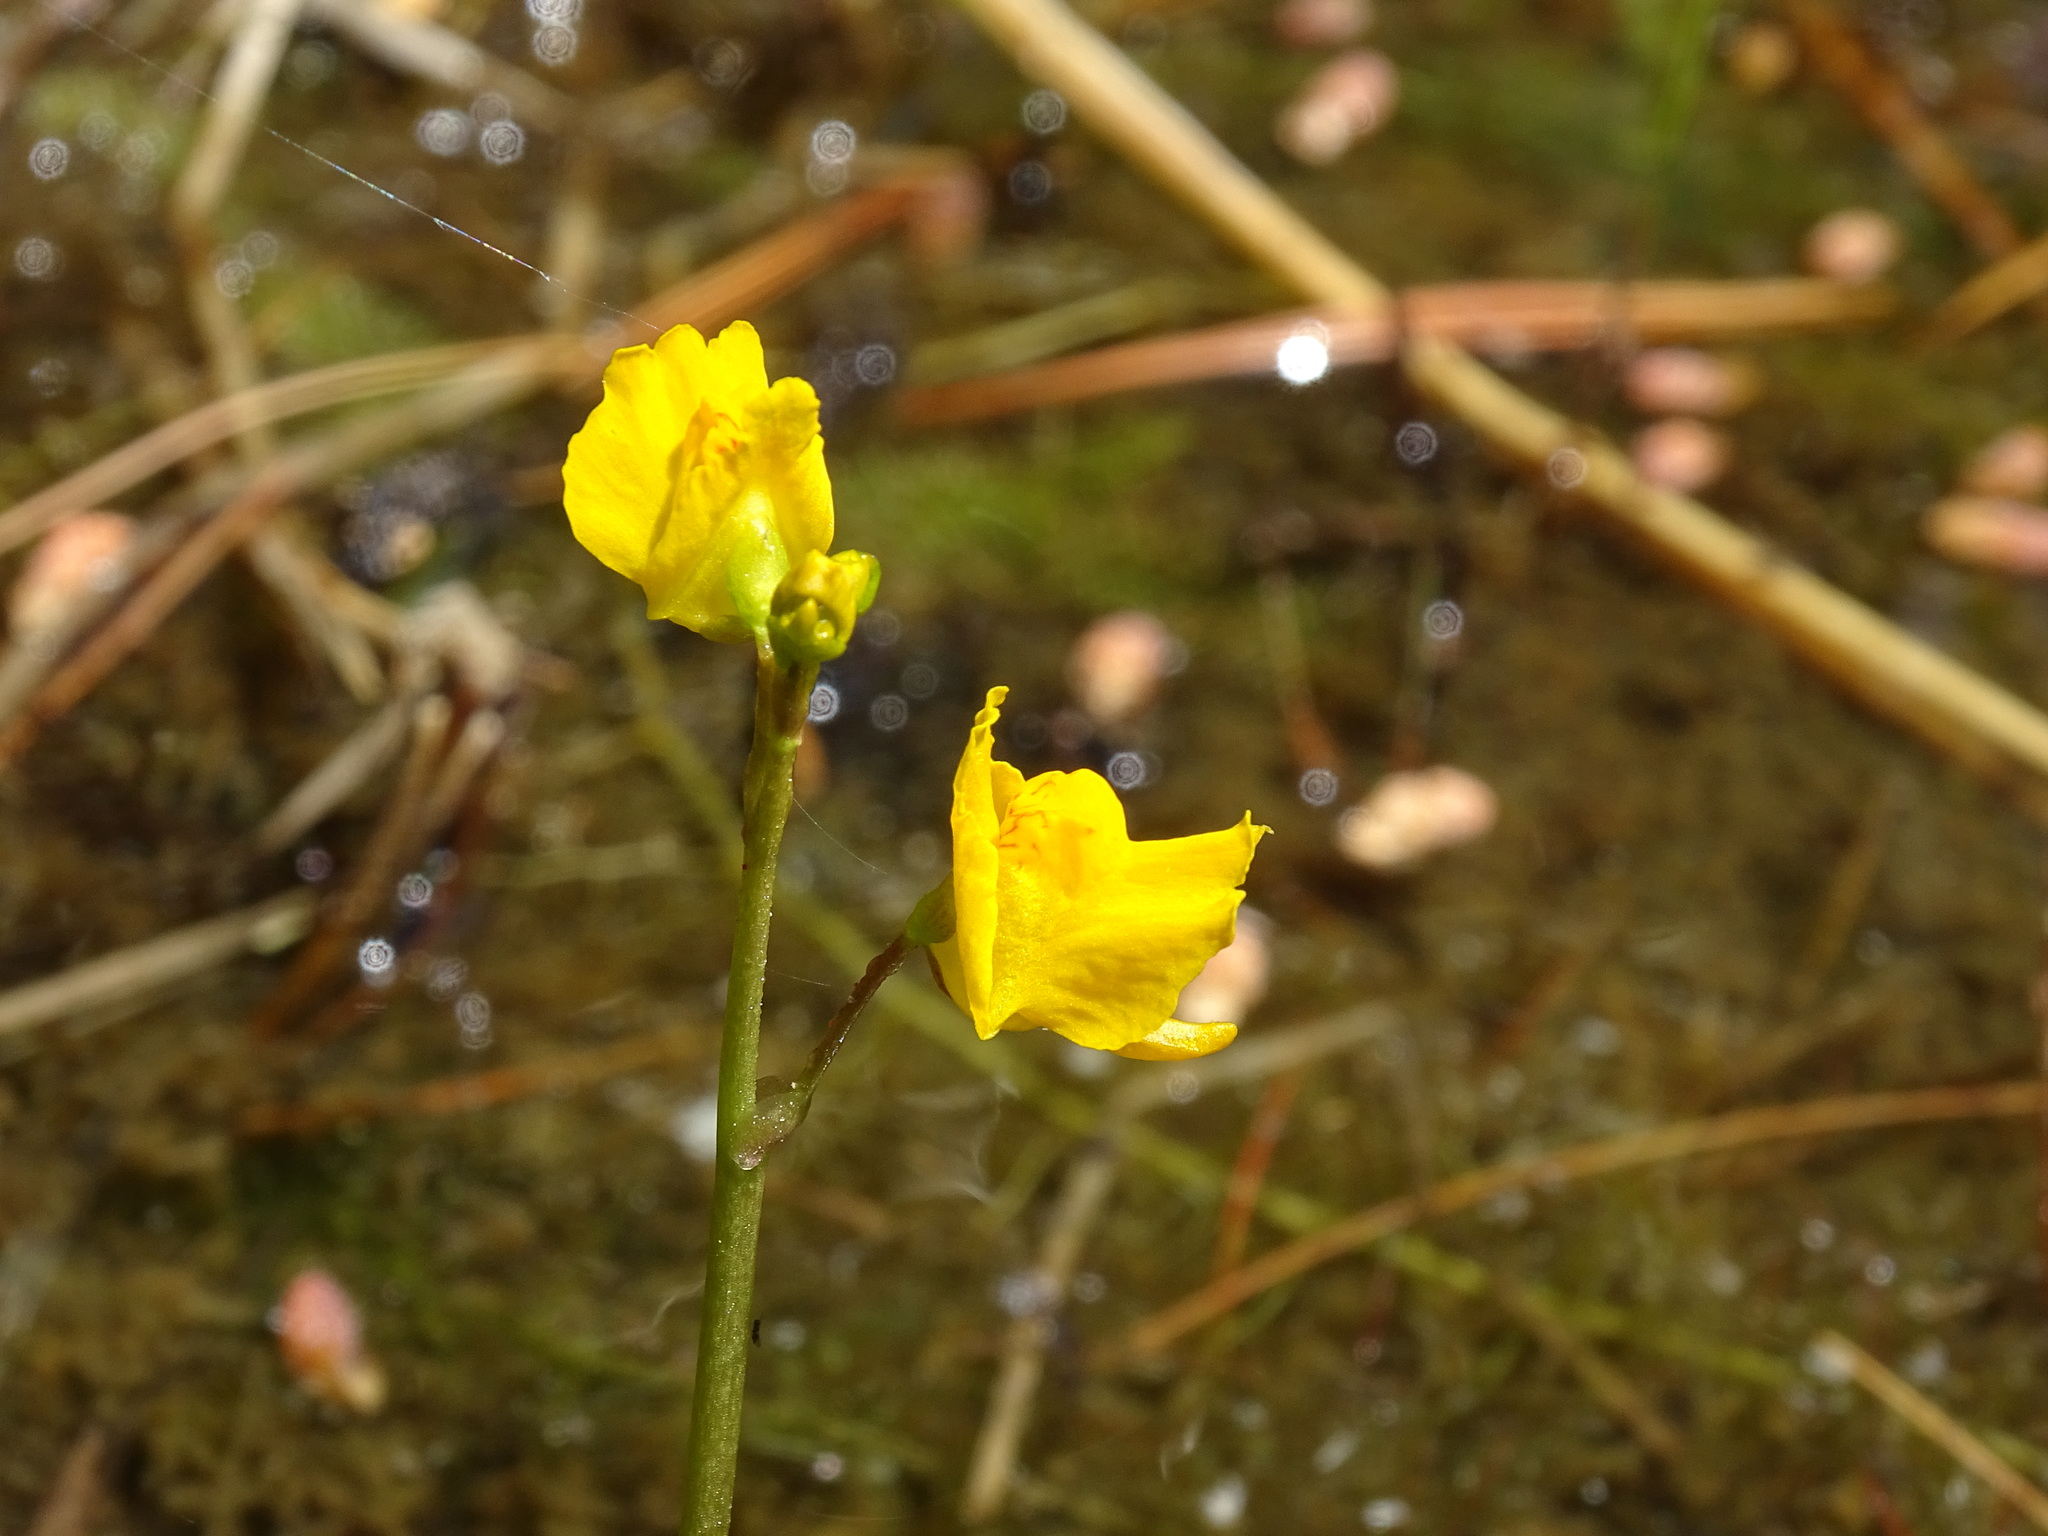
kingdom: Plantae
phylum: Tracheophyta
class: Magnoliopsida
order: Lamiales
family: Lentibulariaceae
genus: Utricularia
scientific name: Utricularia macrorhiza
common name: Common bladderwort
